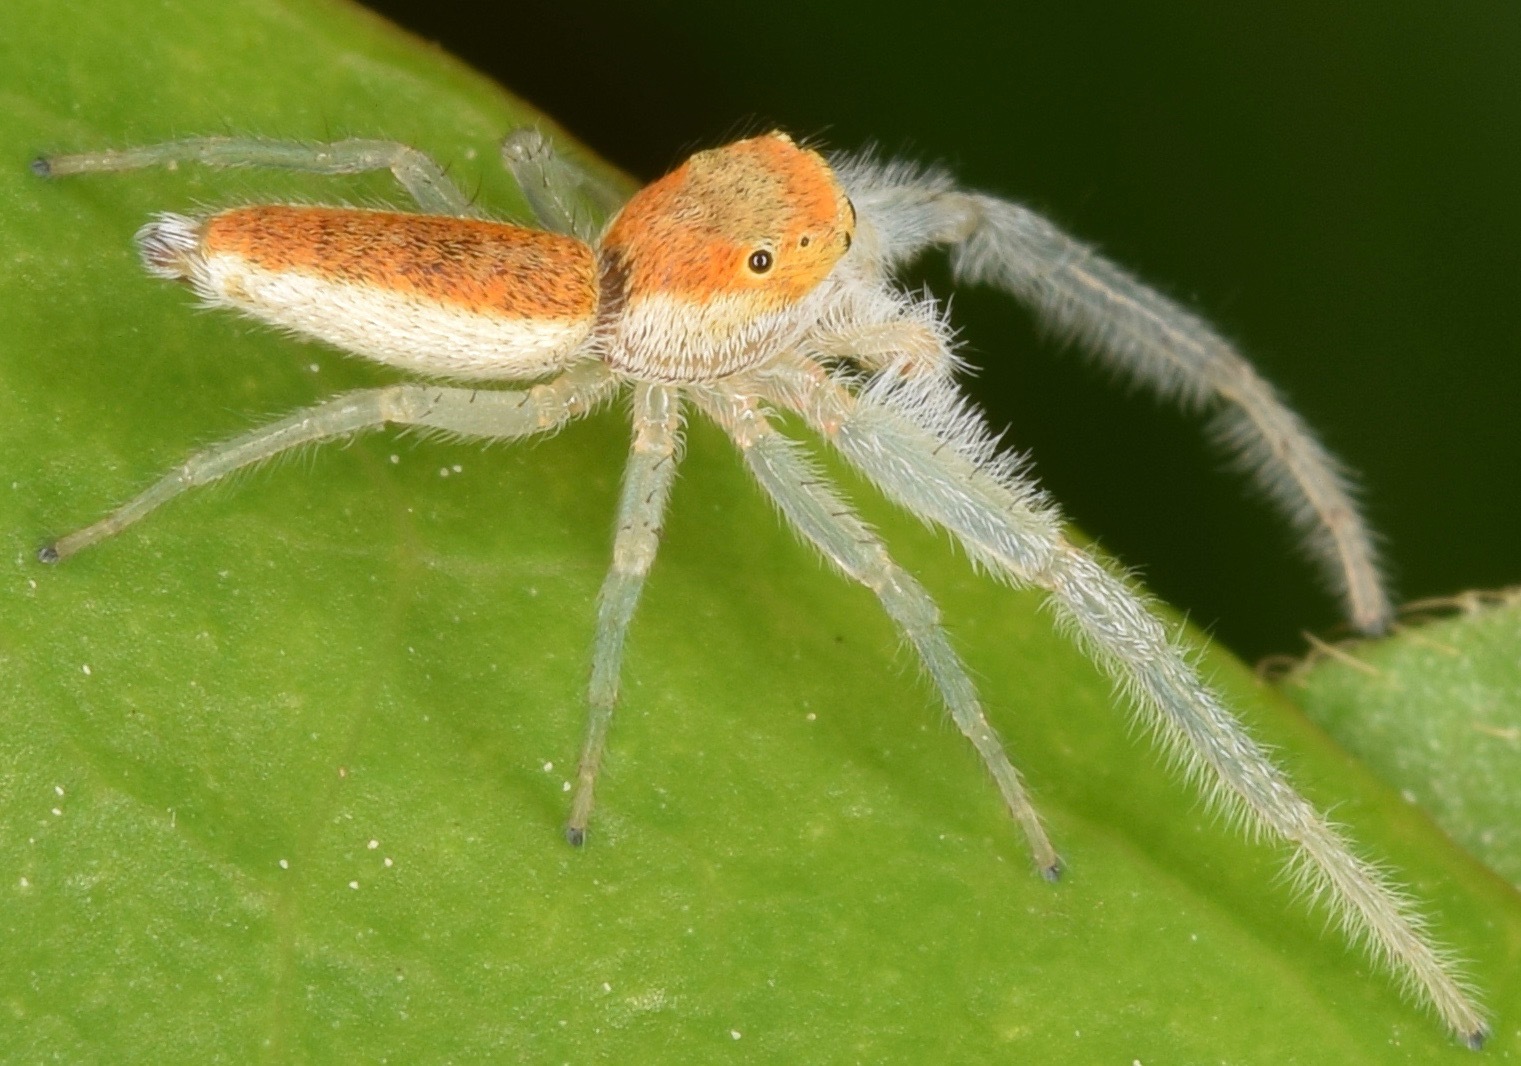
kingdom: Animalia
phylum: Arthropoda
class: Arachnida
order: Araneae
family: Salticidae
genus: Hentzia
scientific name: Hentzia mitrata
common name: White-jawed jumping spider
